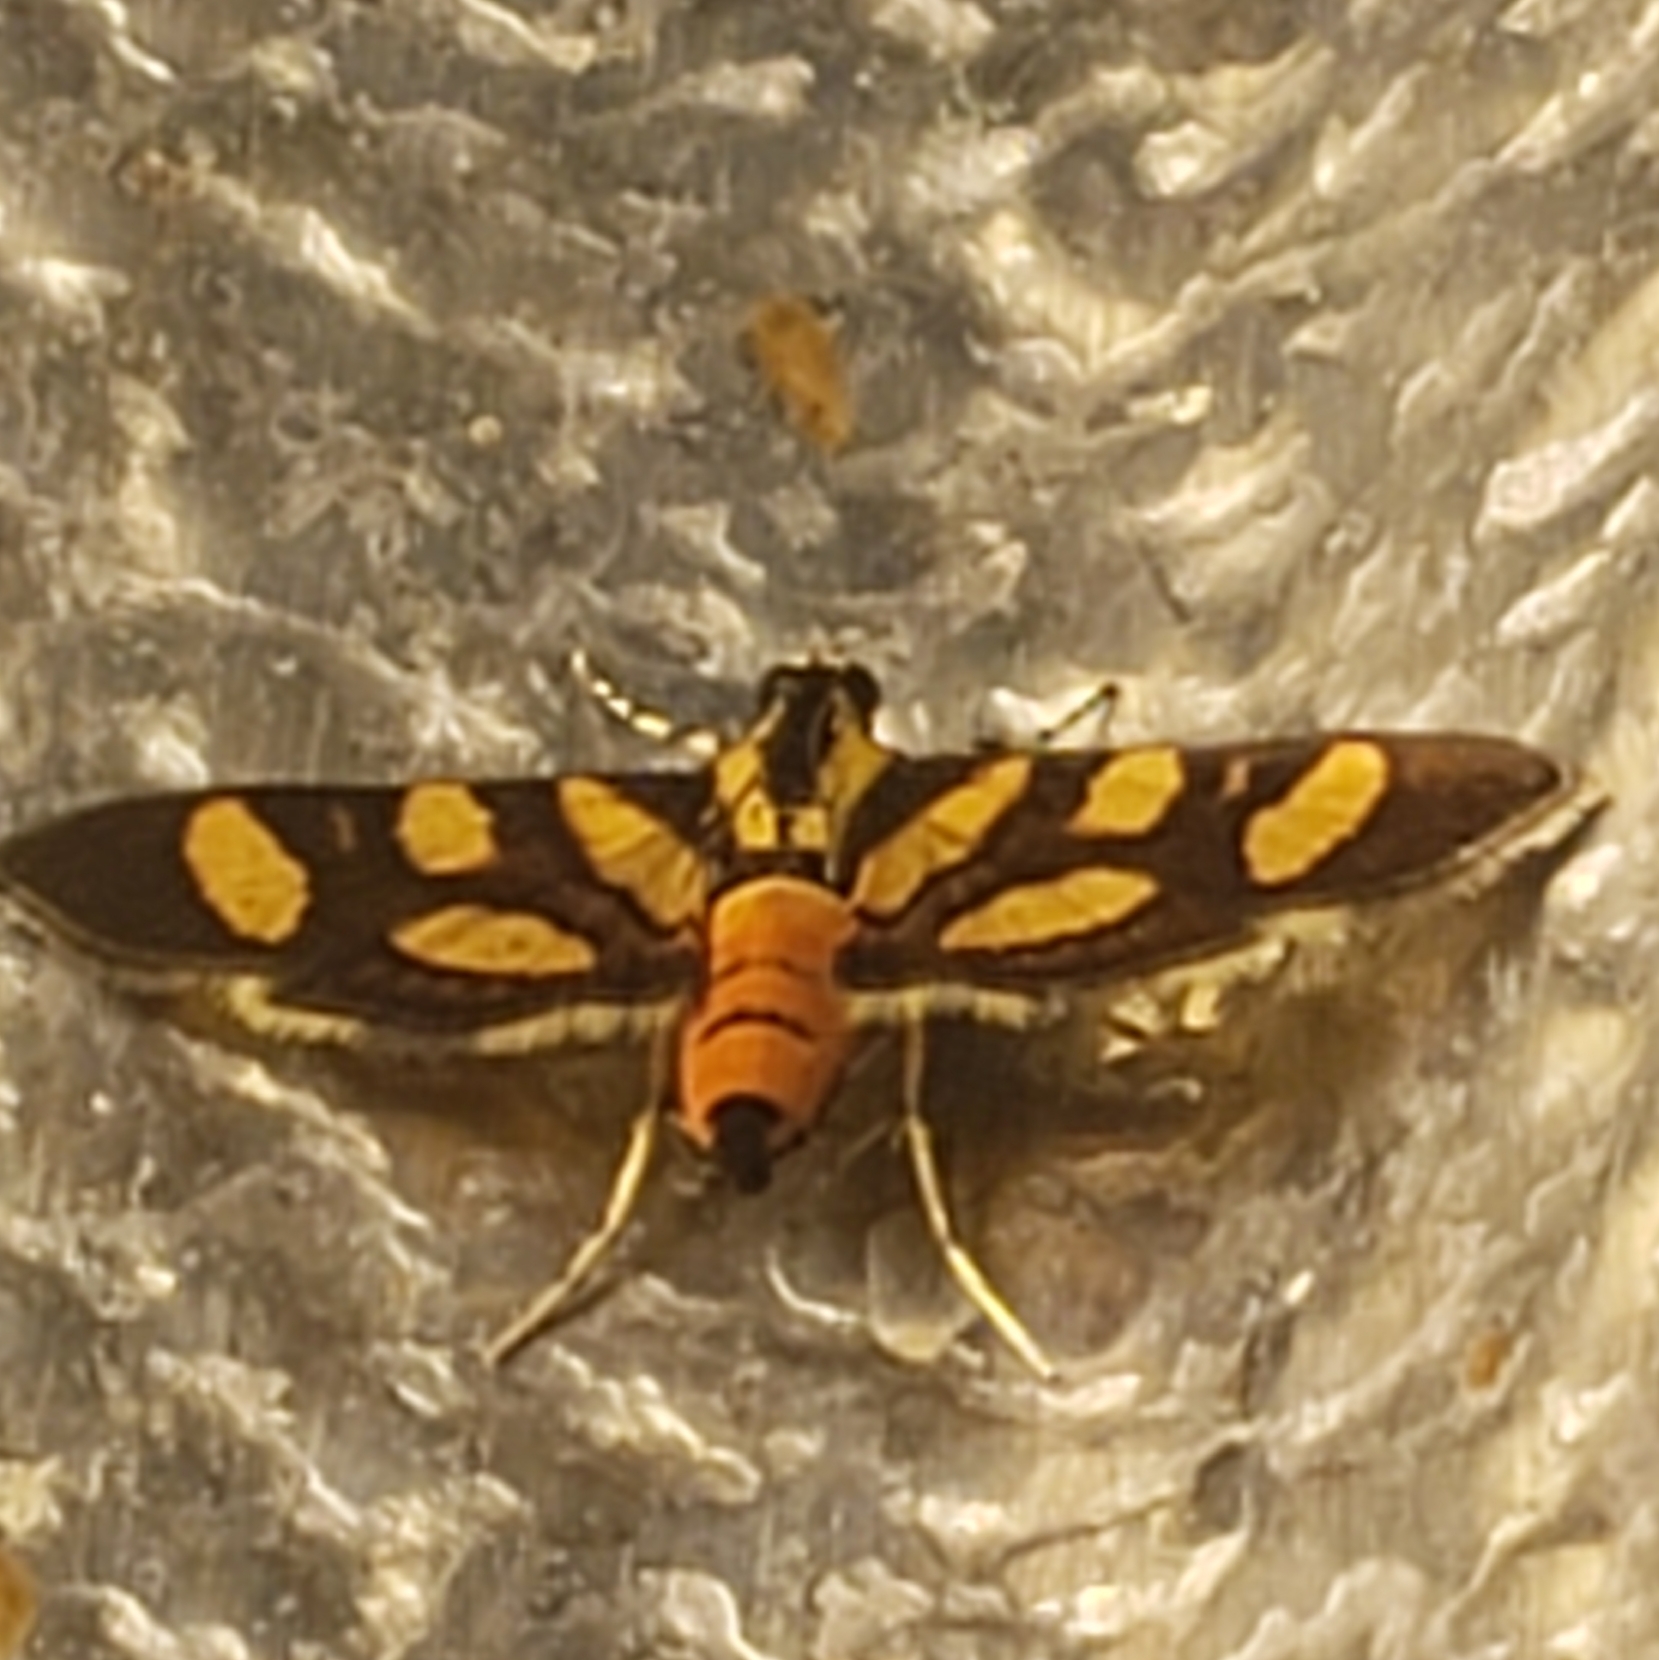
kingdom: Animalia
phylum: Arthropoda
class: Insecta
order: Lepidoptera
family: Crambidae
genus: Syngamia
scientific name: Syngamia florella
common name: Orange-spotted flower moth
